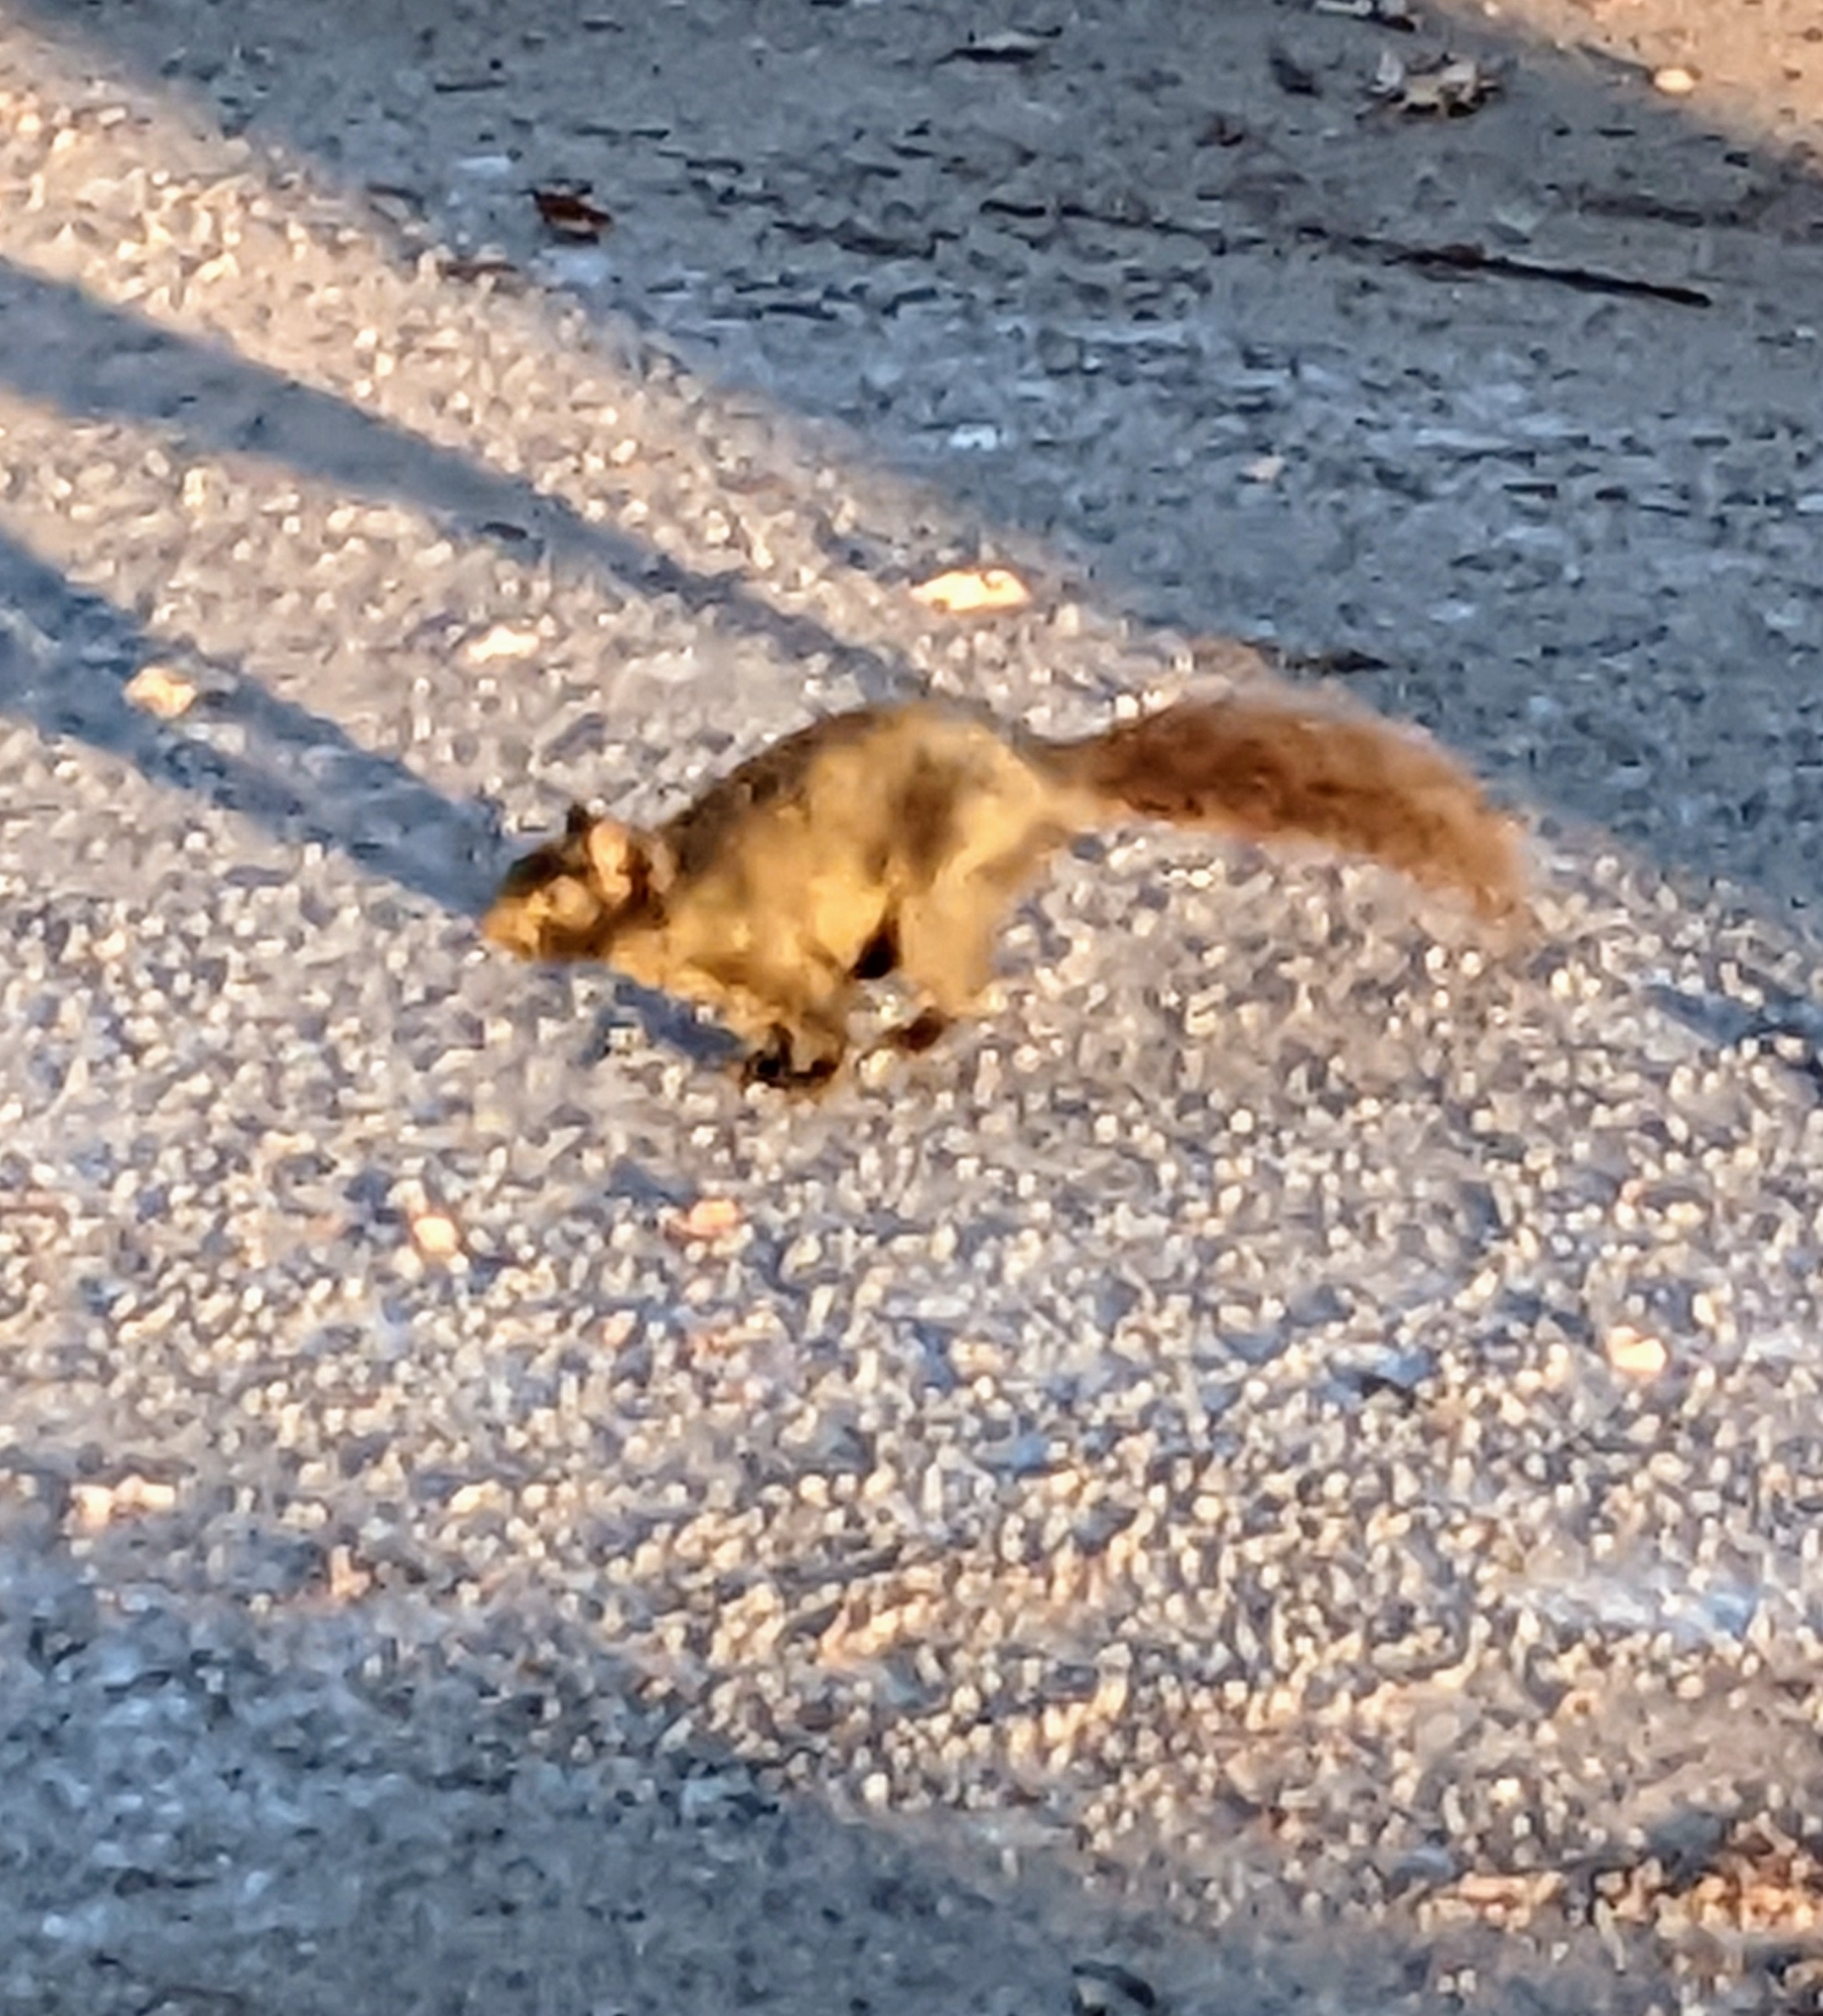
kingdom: Animalia
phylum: Chordata
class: Mammalia
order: Rodentia
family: Sciuridae
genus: Sciurus
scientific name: Sciurus carolinensis
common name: Eastern gray squirrel
